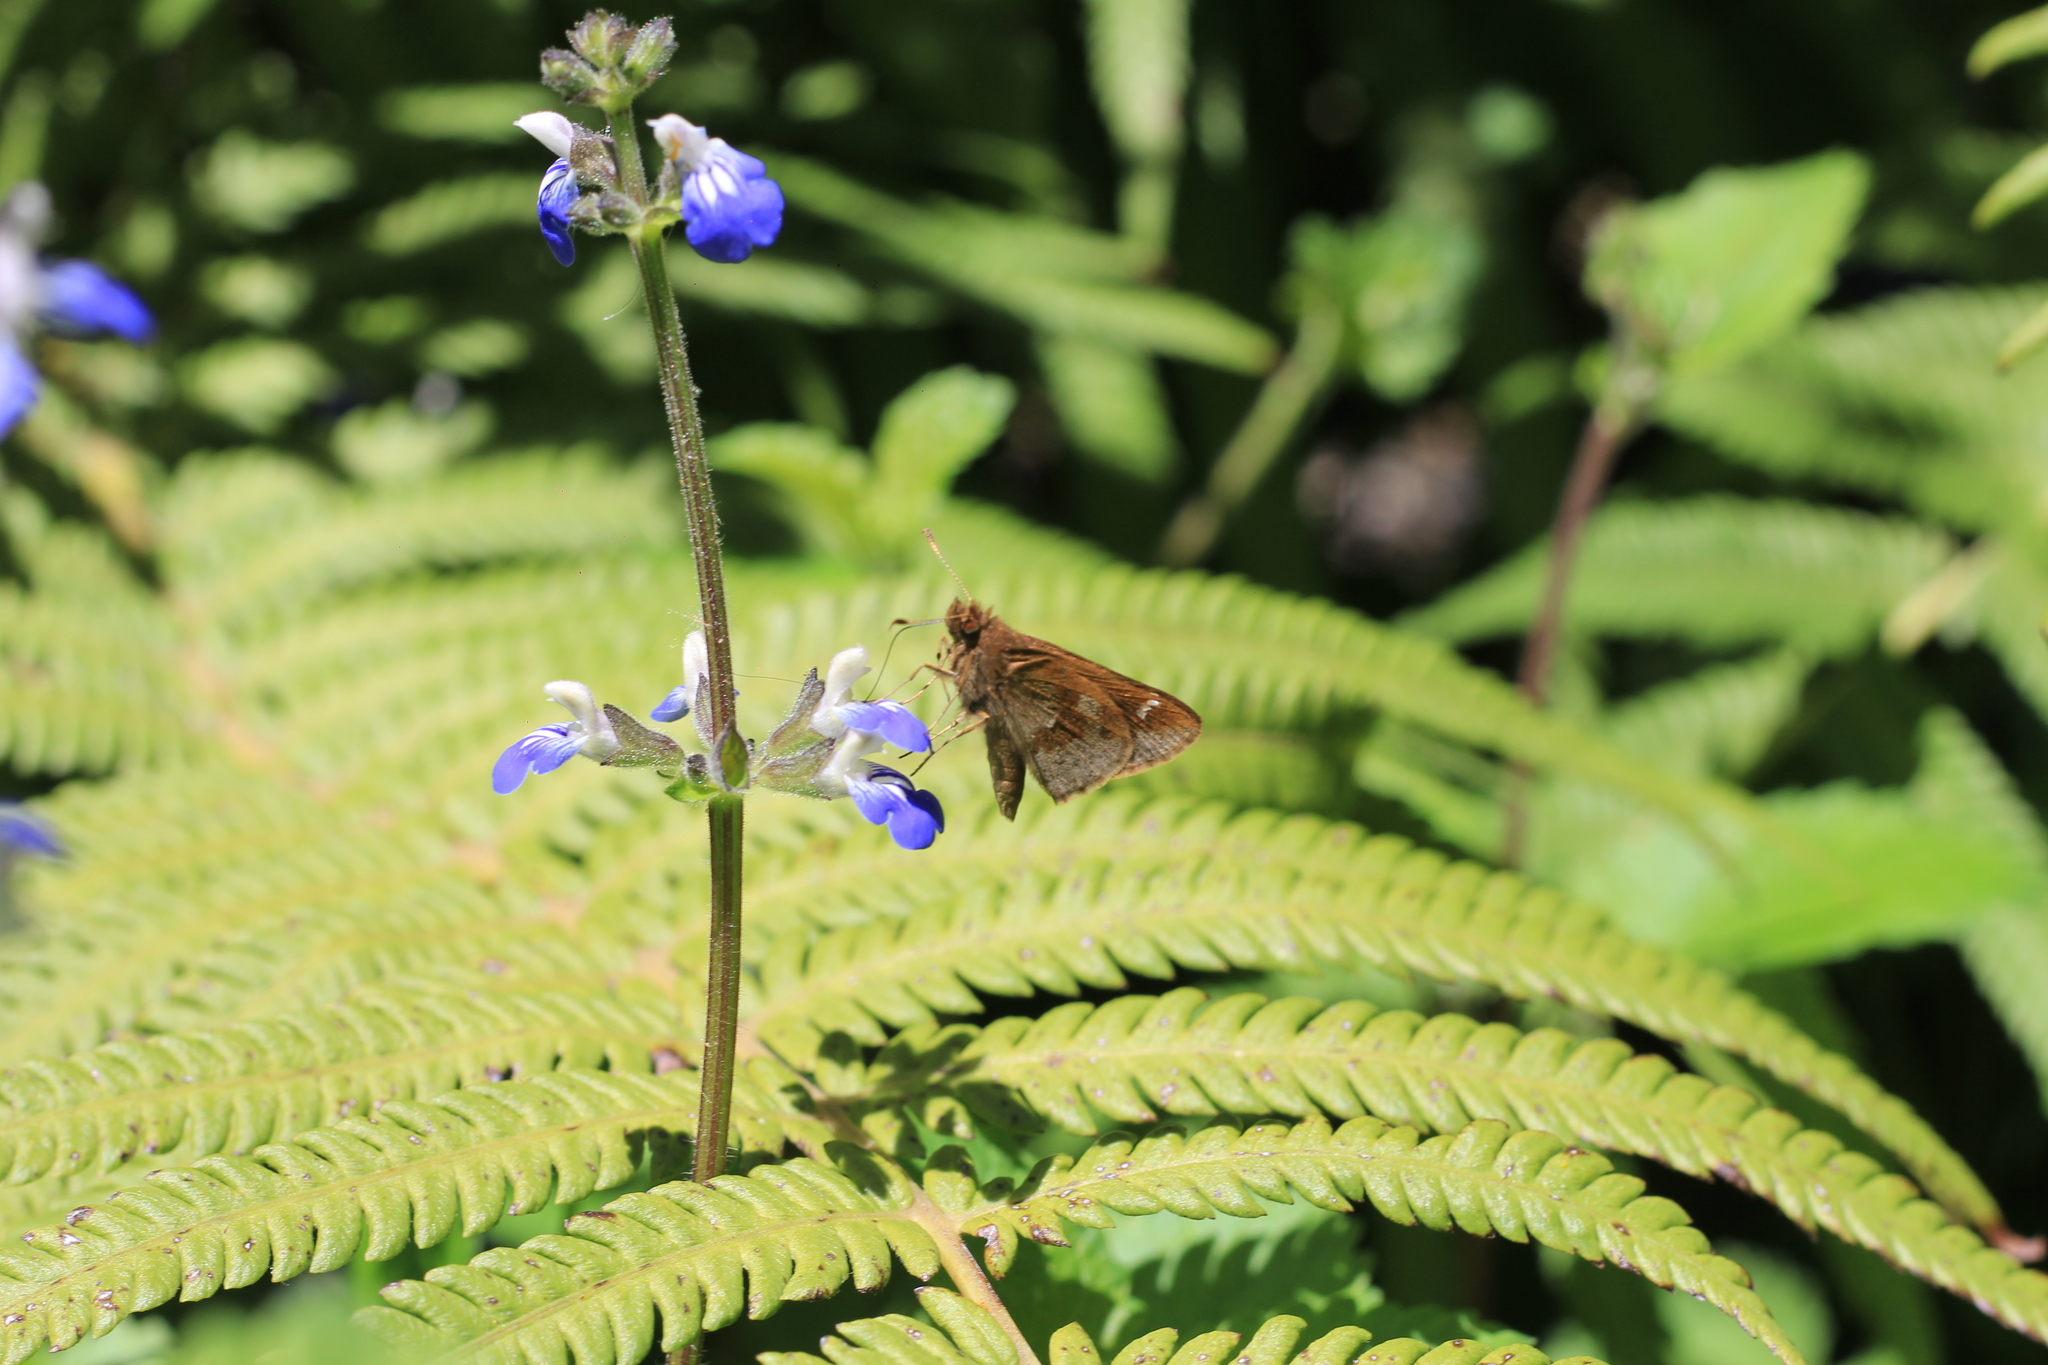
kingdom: Animalia
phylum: Arthropoda
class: Insecta
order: Lepidoptera
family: Hesperiidae
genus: Cymaenes
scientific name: Cymaenes
